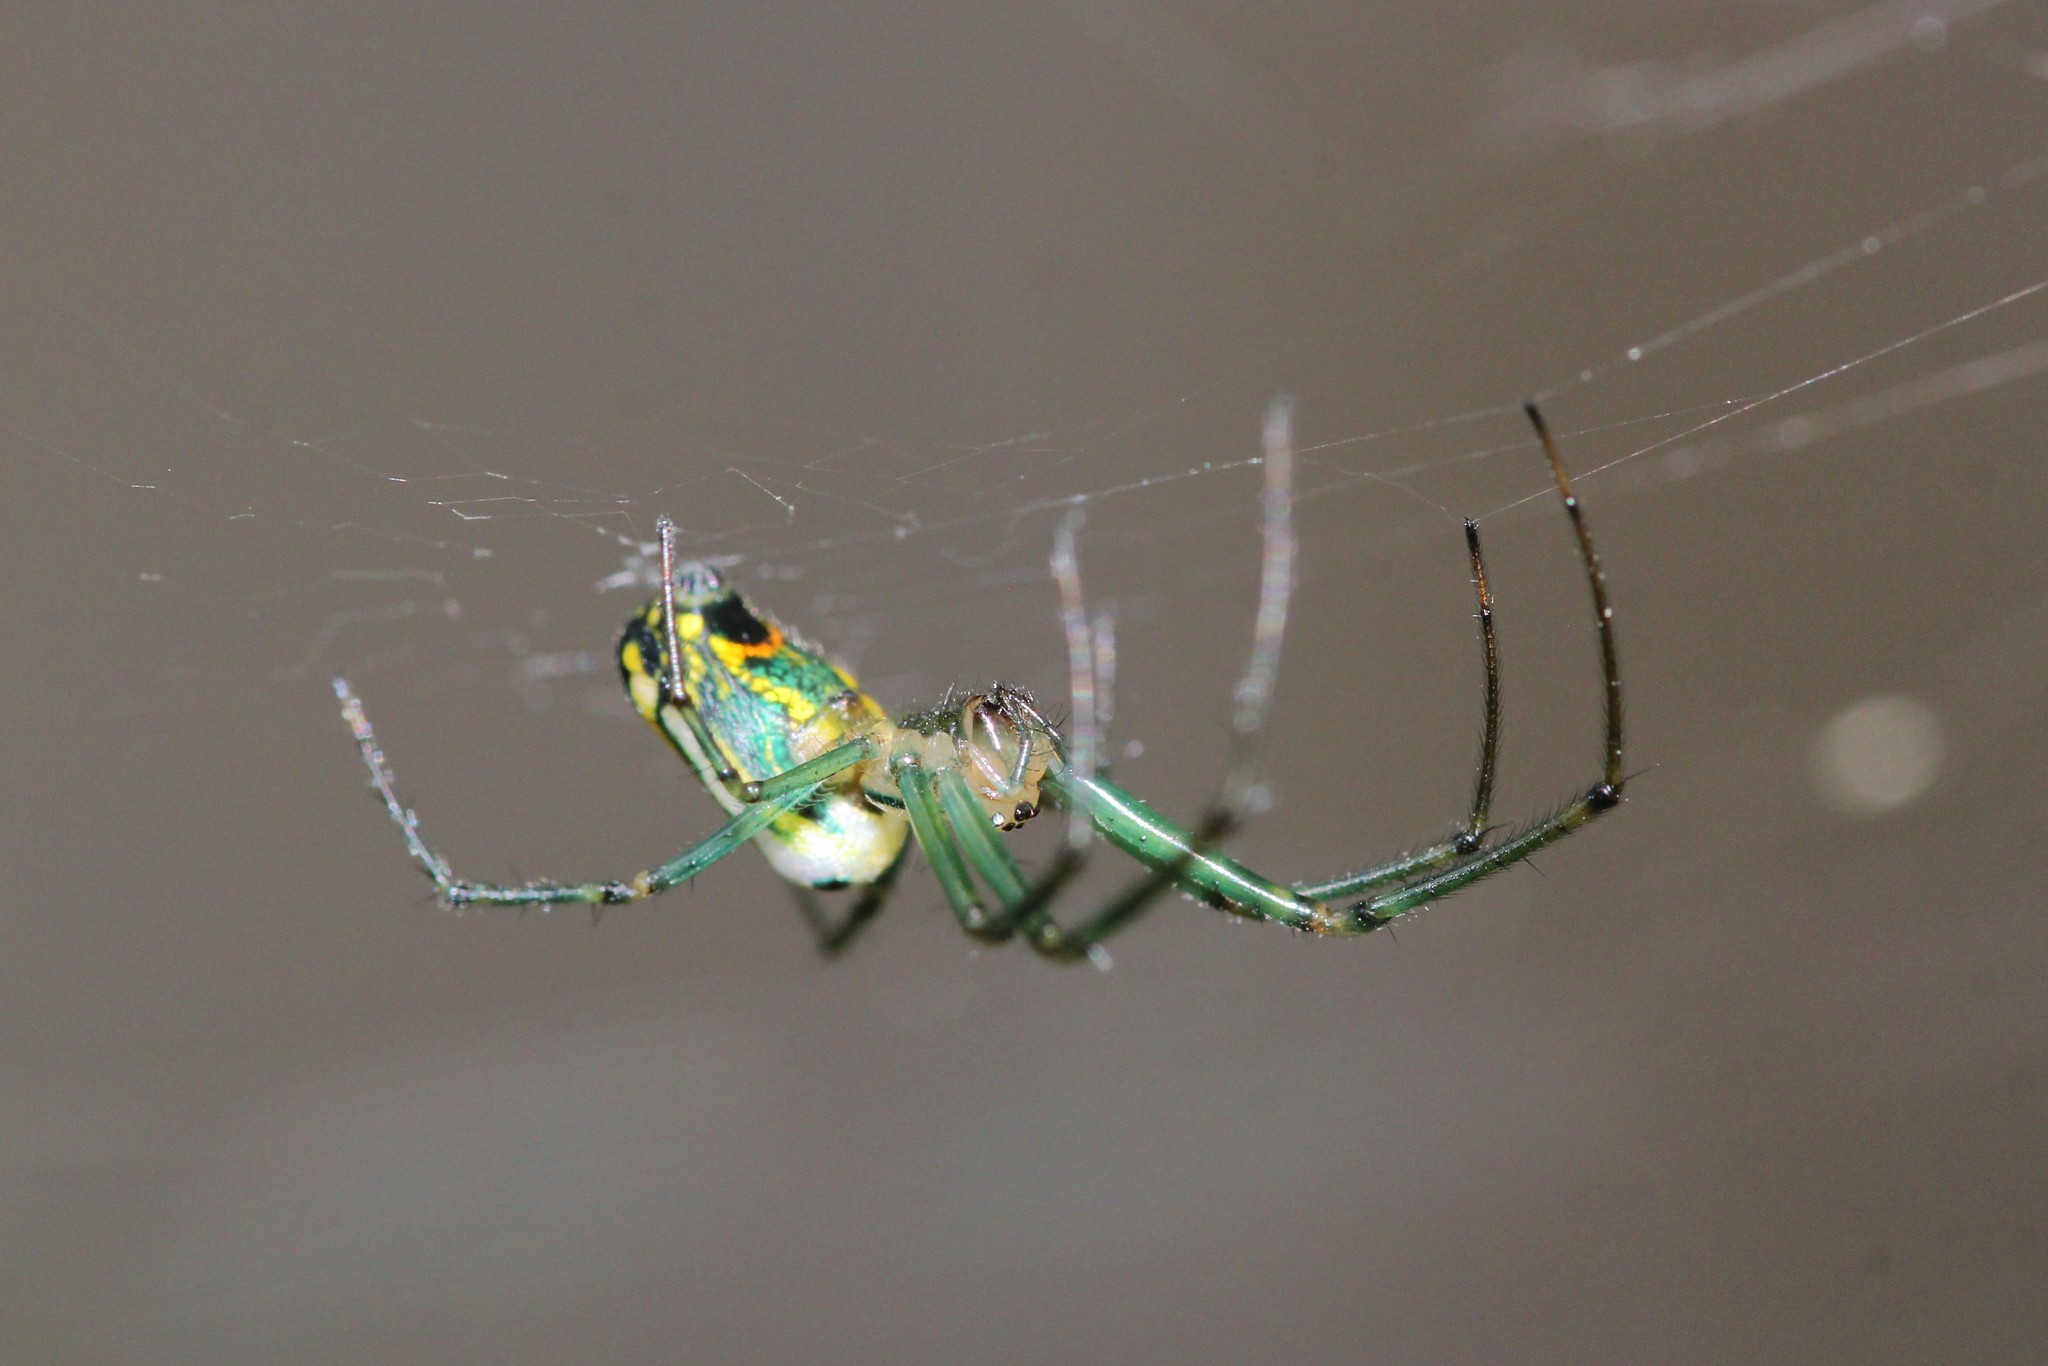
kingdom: Animalia
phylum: Arthropoda
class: Arachnida
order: Araneae
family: Tetragnathidae
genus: Leucauge
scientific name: Leucauge venusta
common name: Longjawed orb weavers
